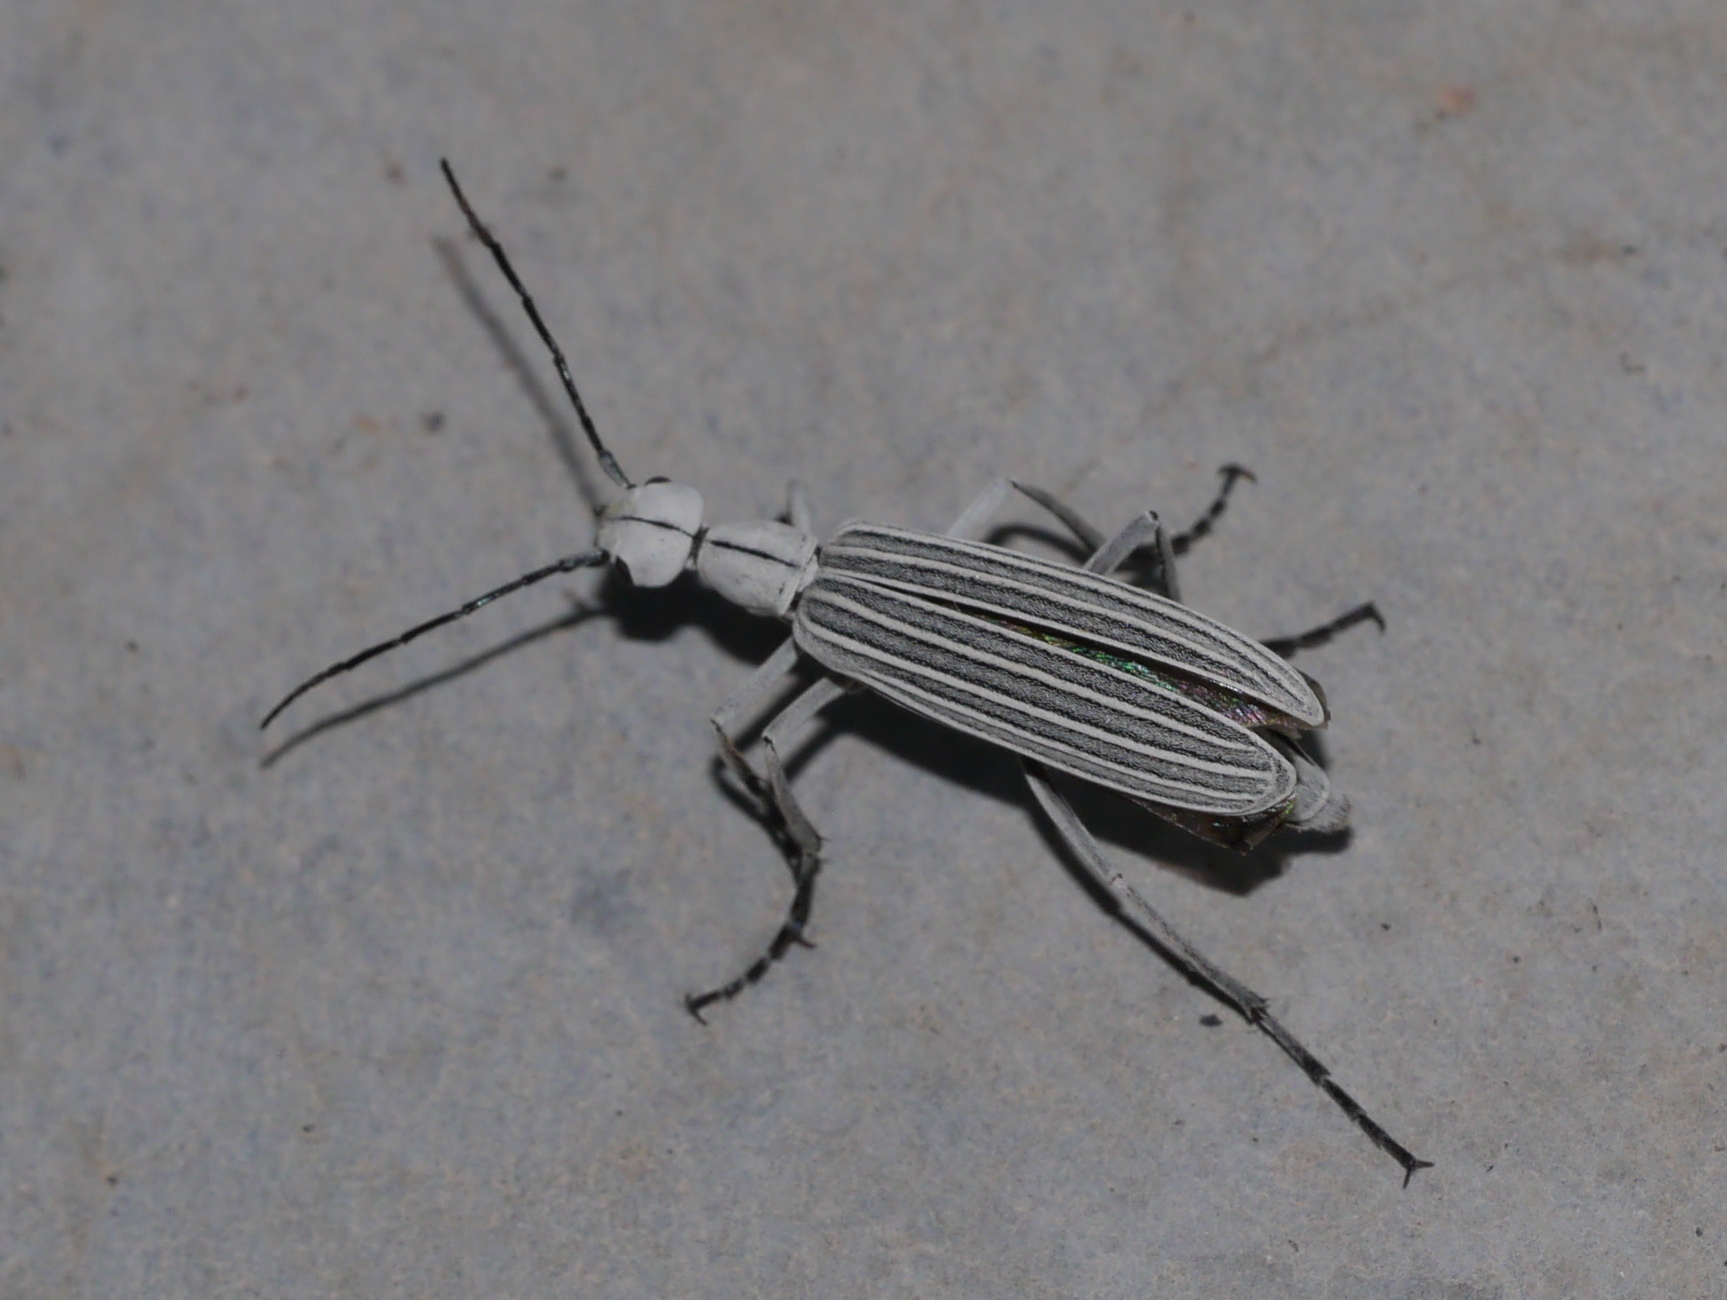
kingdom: Animalia
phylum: Arthropoda
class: Insecta
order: Coleoptera
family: Meloidae
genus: Epicauta
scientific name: Epicauta costata
